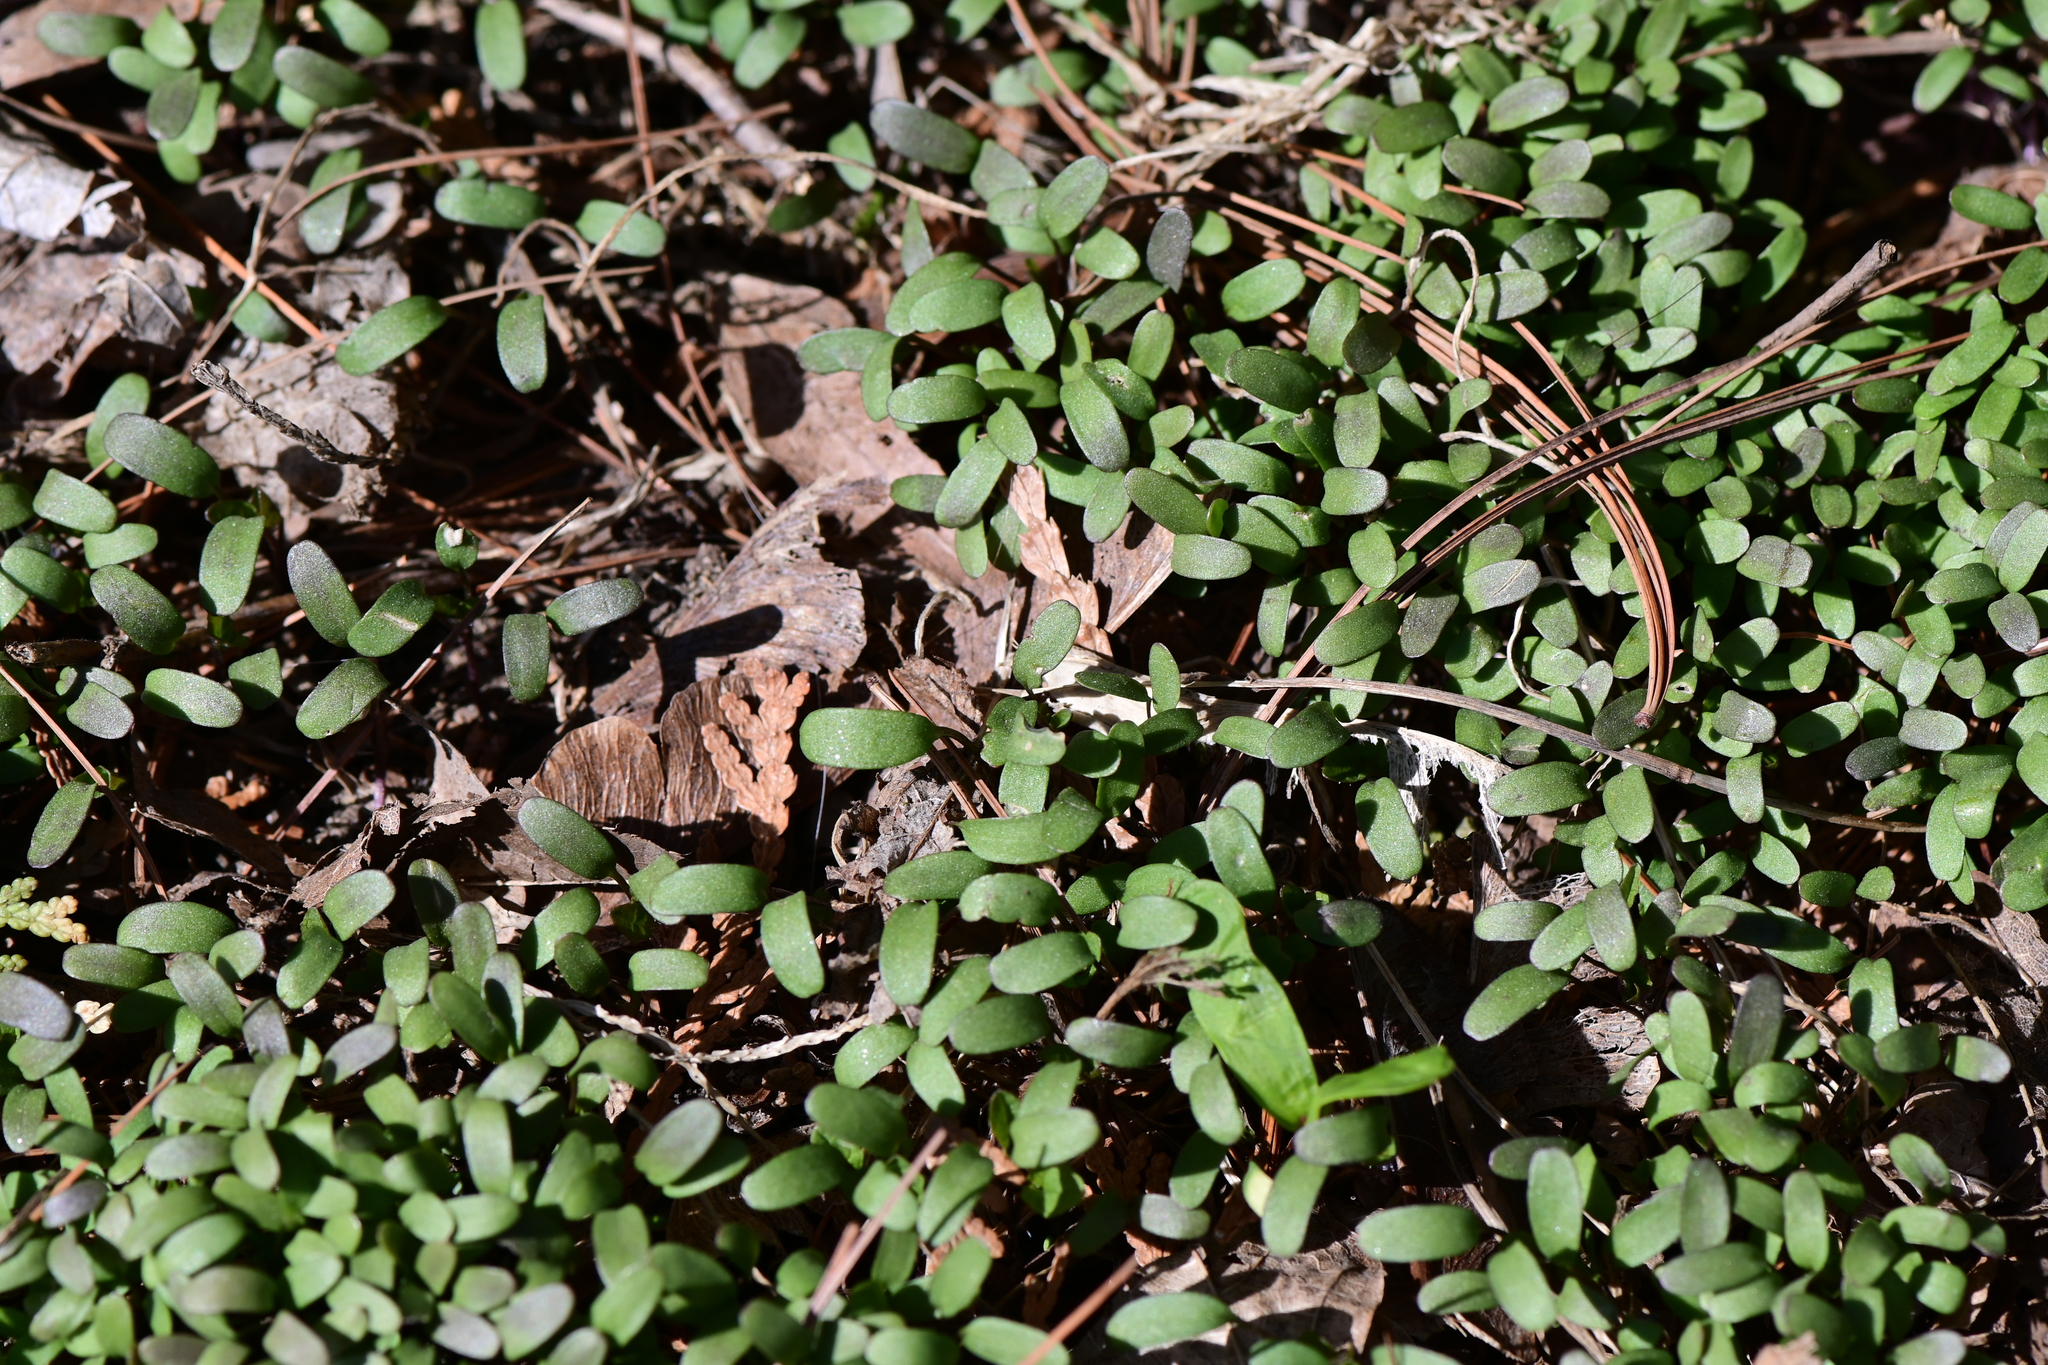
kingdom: Plantae
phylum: Tracheophyta
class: Magnoliopsida
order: Brassicales
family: Brassicaceae
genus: Alliaria
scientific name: Alliaria petiolata
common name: Garlic mustard
